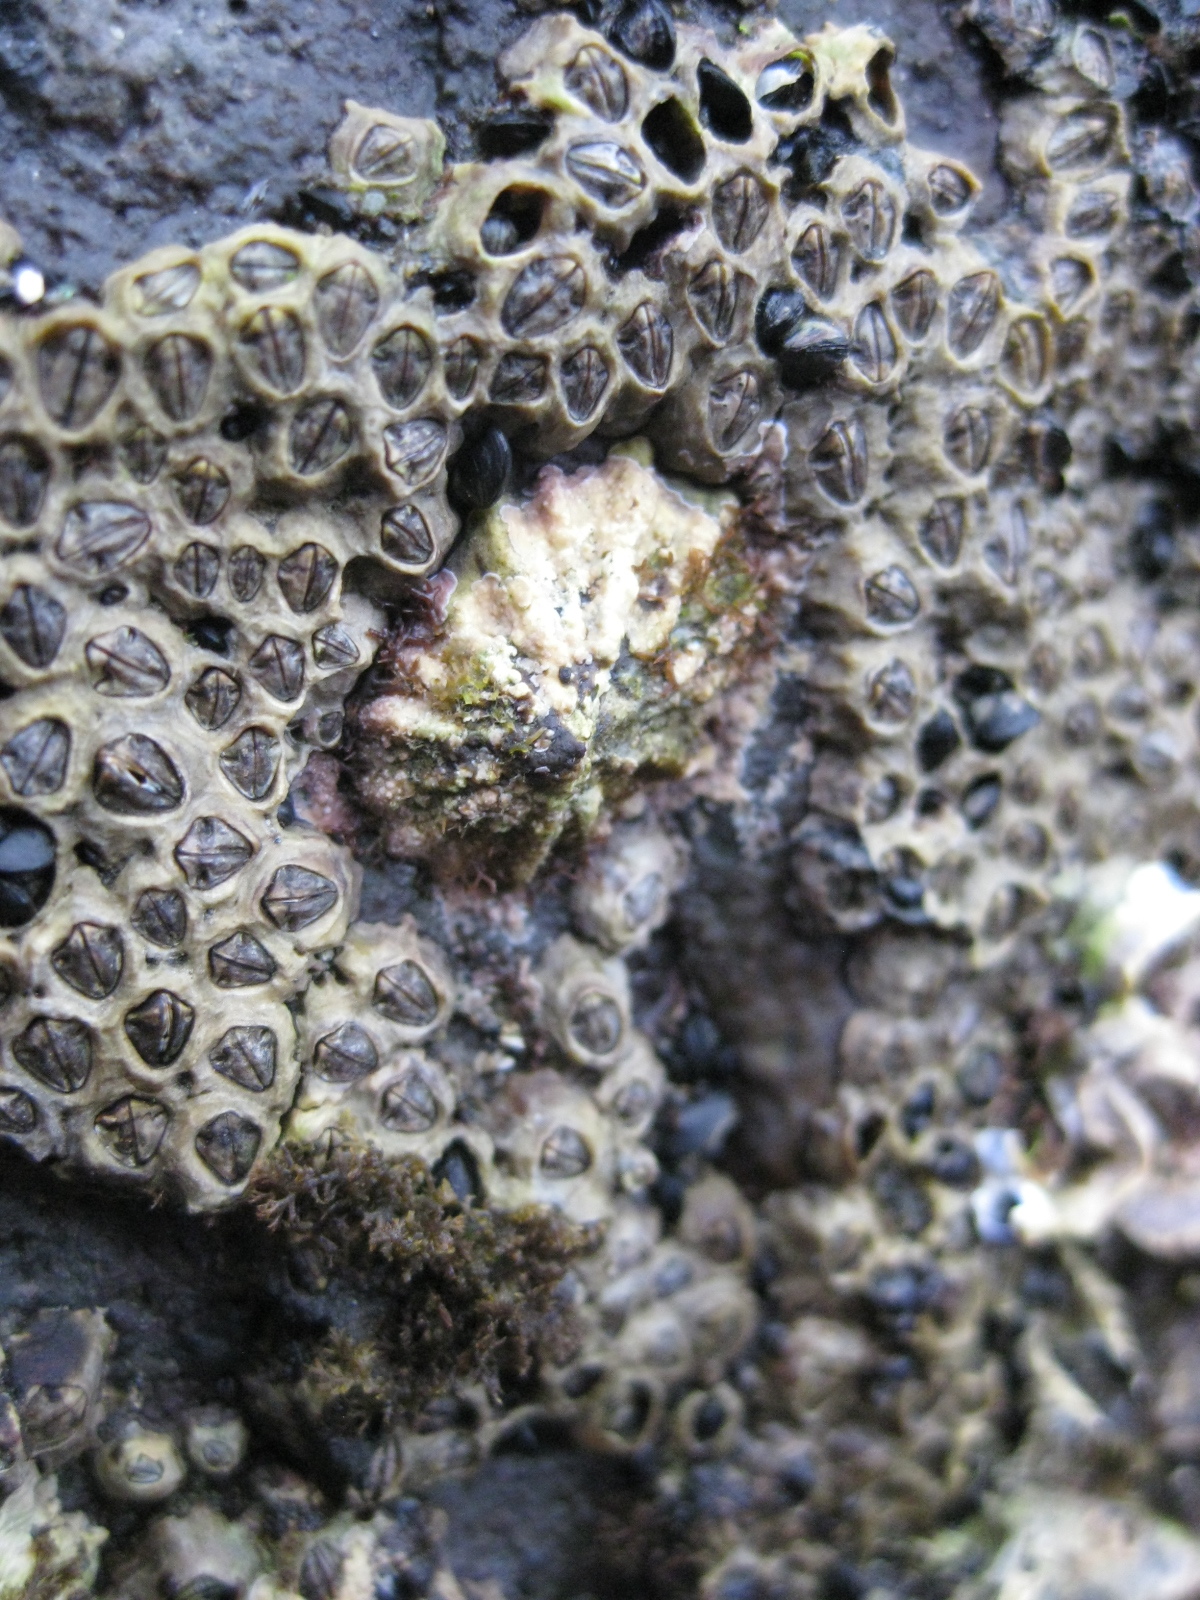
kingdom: Animalia
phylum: Mollusca
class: Gastropoda
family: Lottiidae
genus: Patelloida
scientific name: Patelloida corticata
